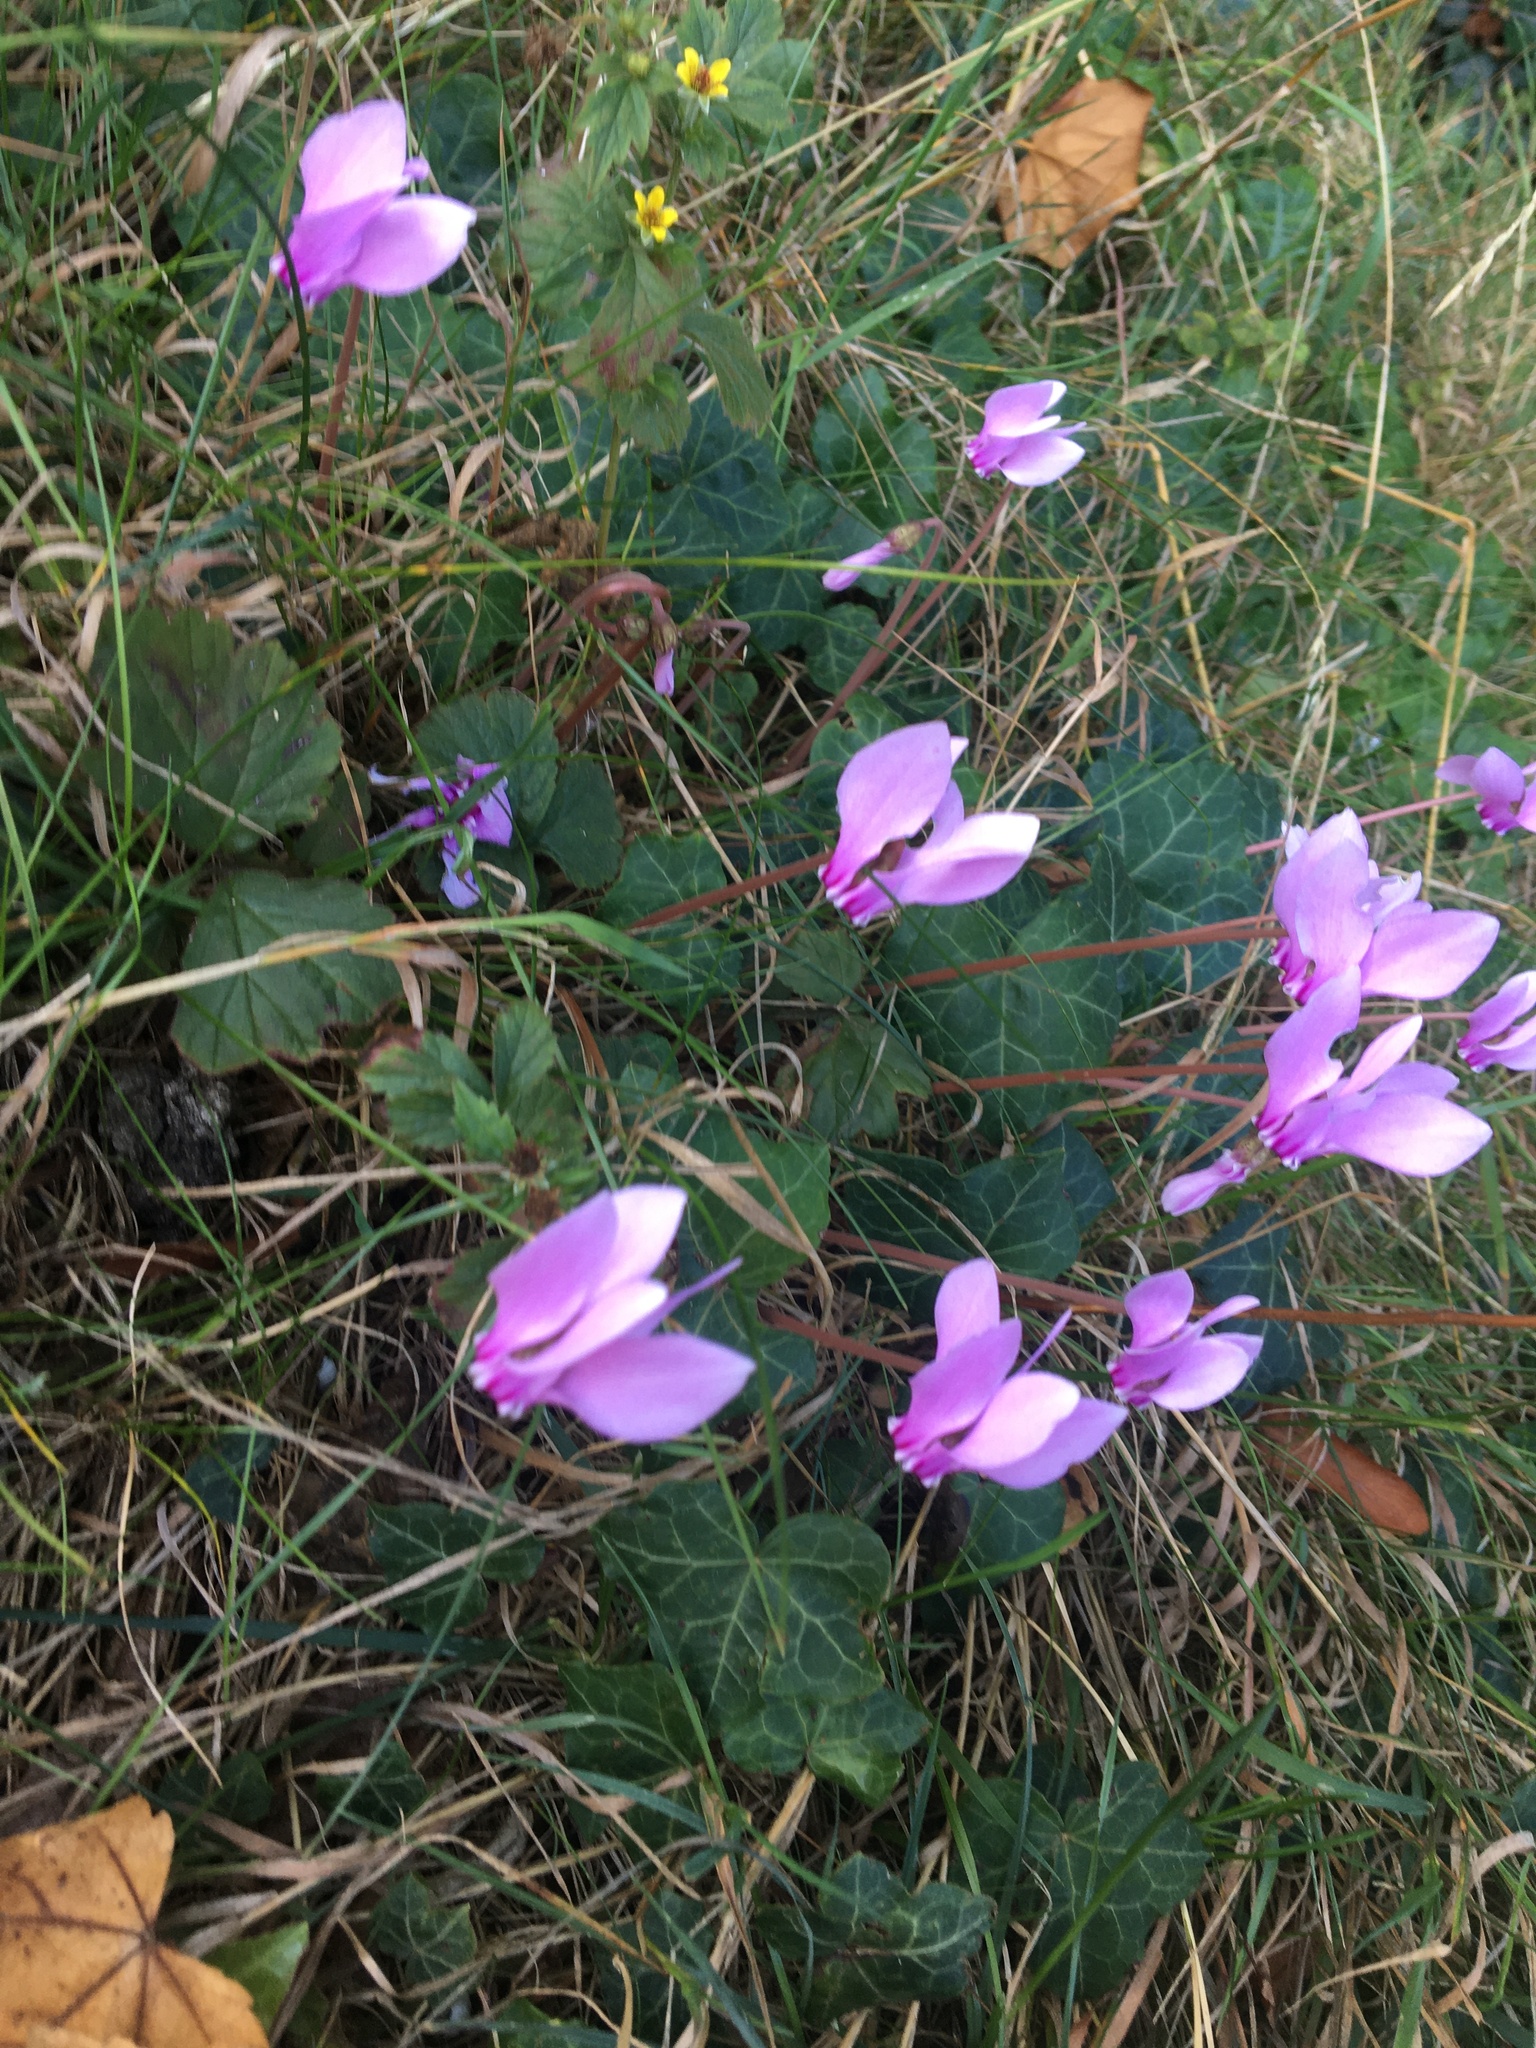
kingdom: Plantae
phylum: Tracheophyta
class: Magnoliopsida
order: Ericales
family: Primulaceae
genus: Cyclamen
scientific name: Cyclamen hederifolium
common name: Sowbread
